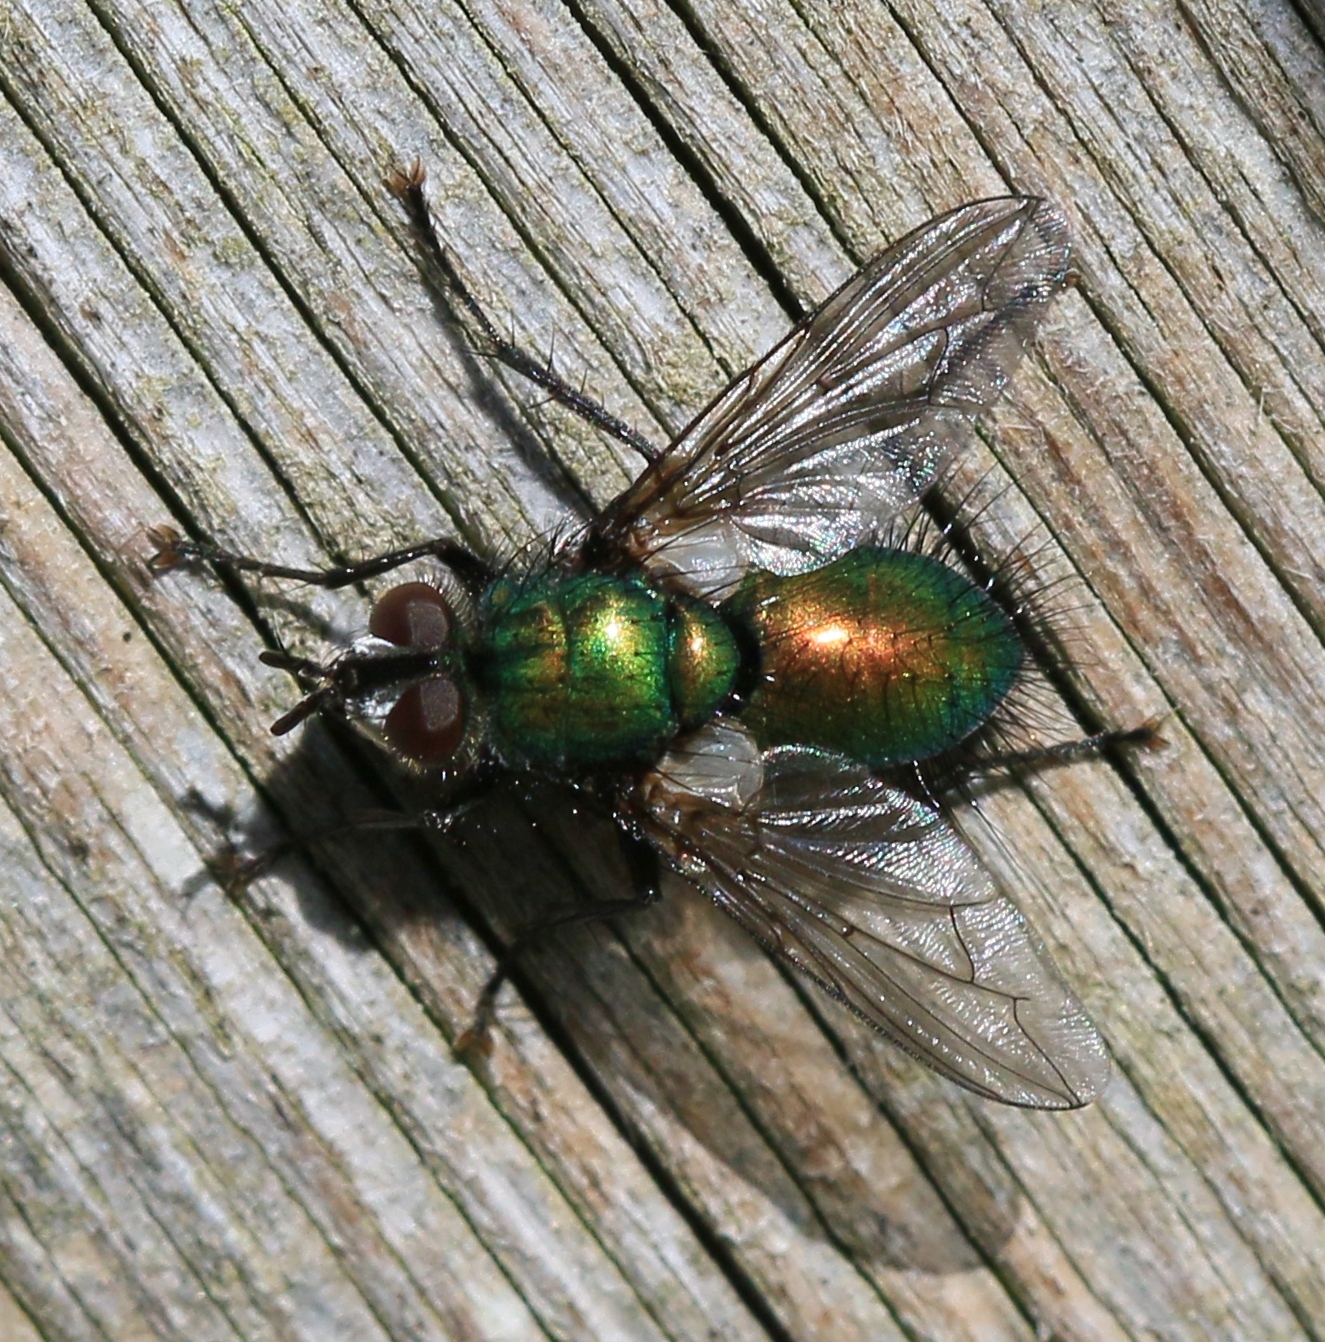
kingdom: Animalia
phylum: Arthropoda
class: Insecta
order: Diptera
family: Tachinidae
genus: Gymnocheta
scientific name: Gymnocheta viridis
